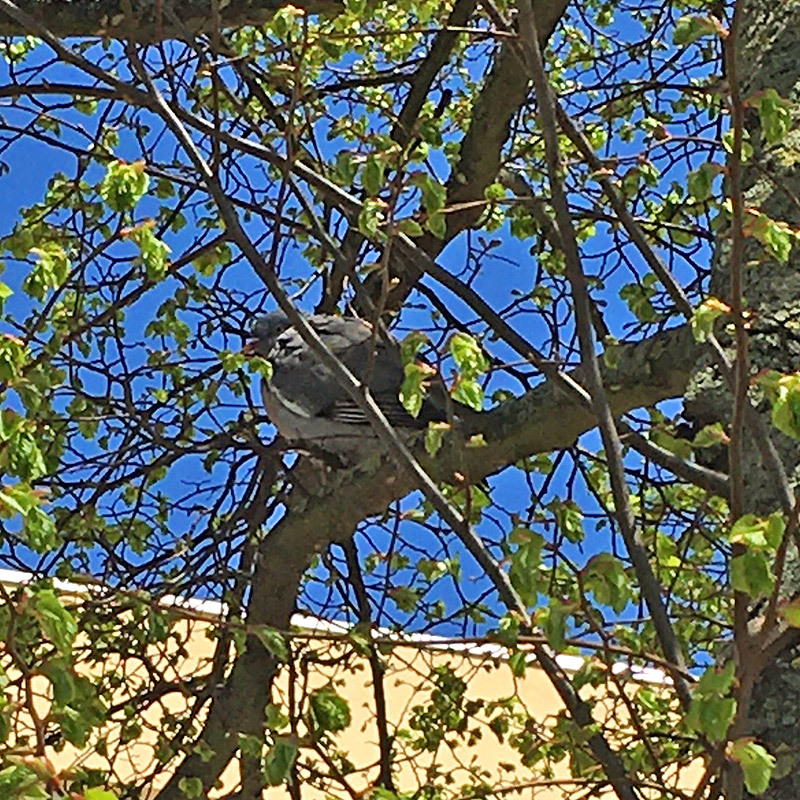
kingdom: Animalia
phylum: Chordata
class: Aves
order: Columbiformes
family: Columbidae
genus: Columba
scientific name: Columba palumbus
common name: Common wood pigeon
